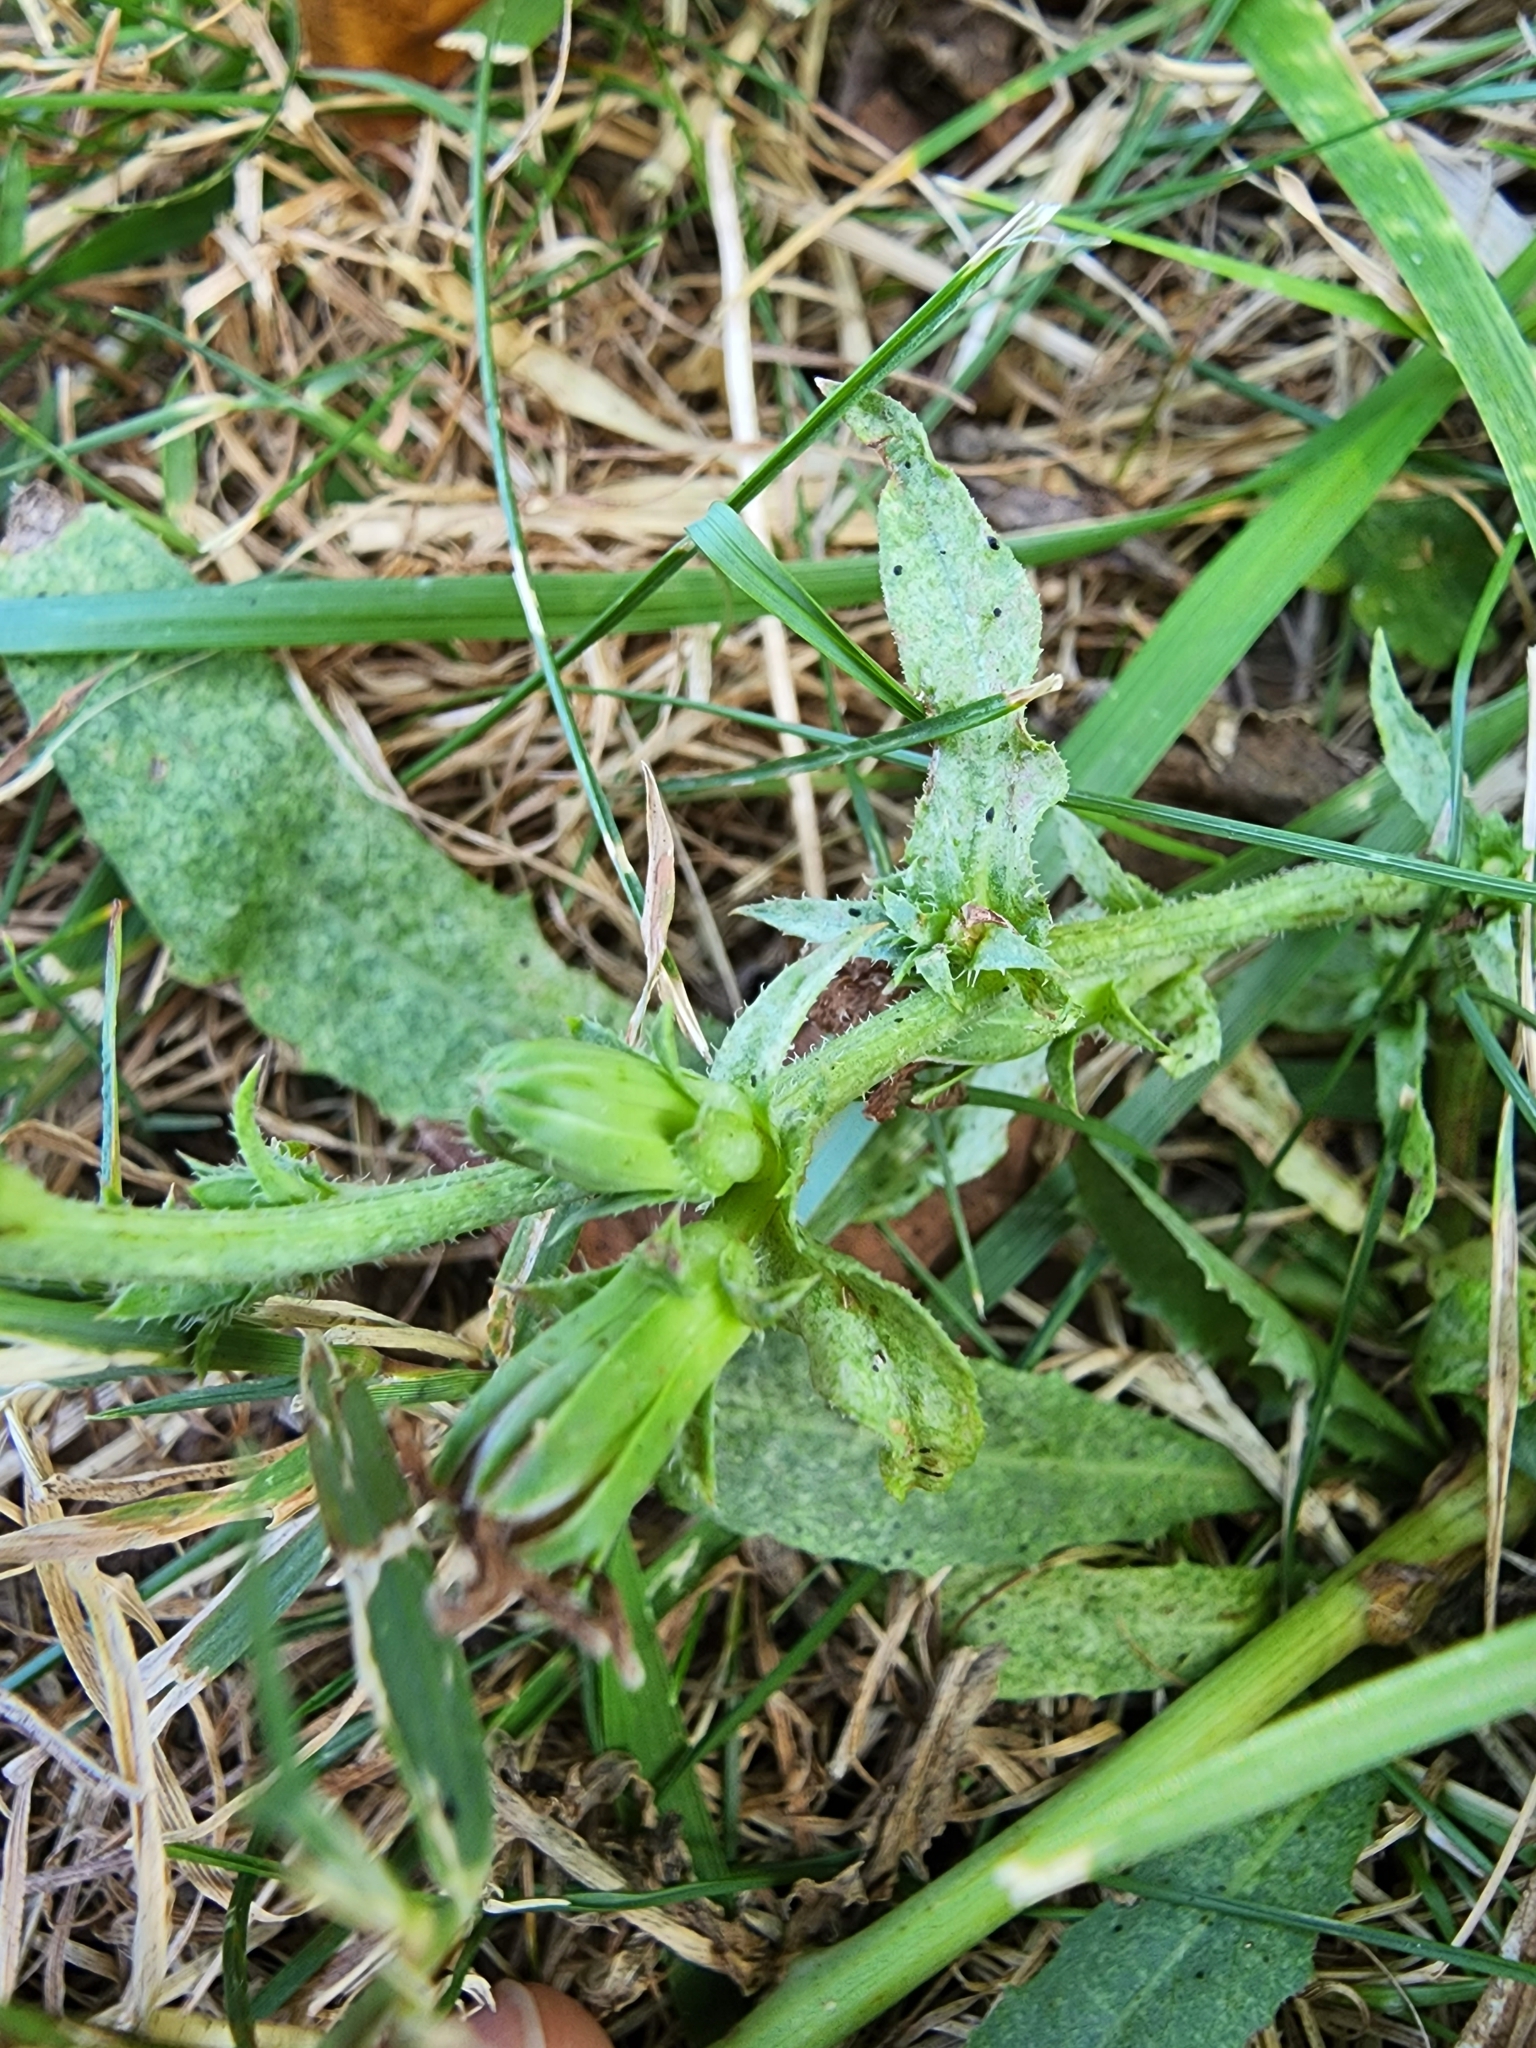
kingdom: Plantae
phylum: Tracheophyta
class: Magnoliopsida
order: Asterales
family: Asteraceae
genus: Cichorium
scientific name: Cichorium intybus
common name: Chicory
